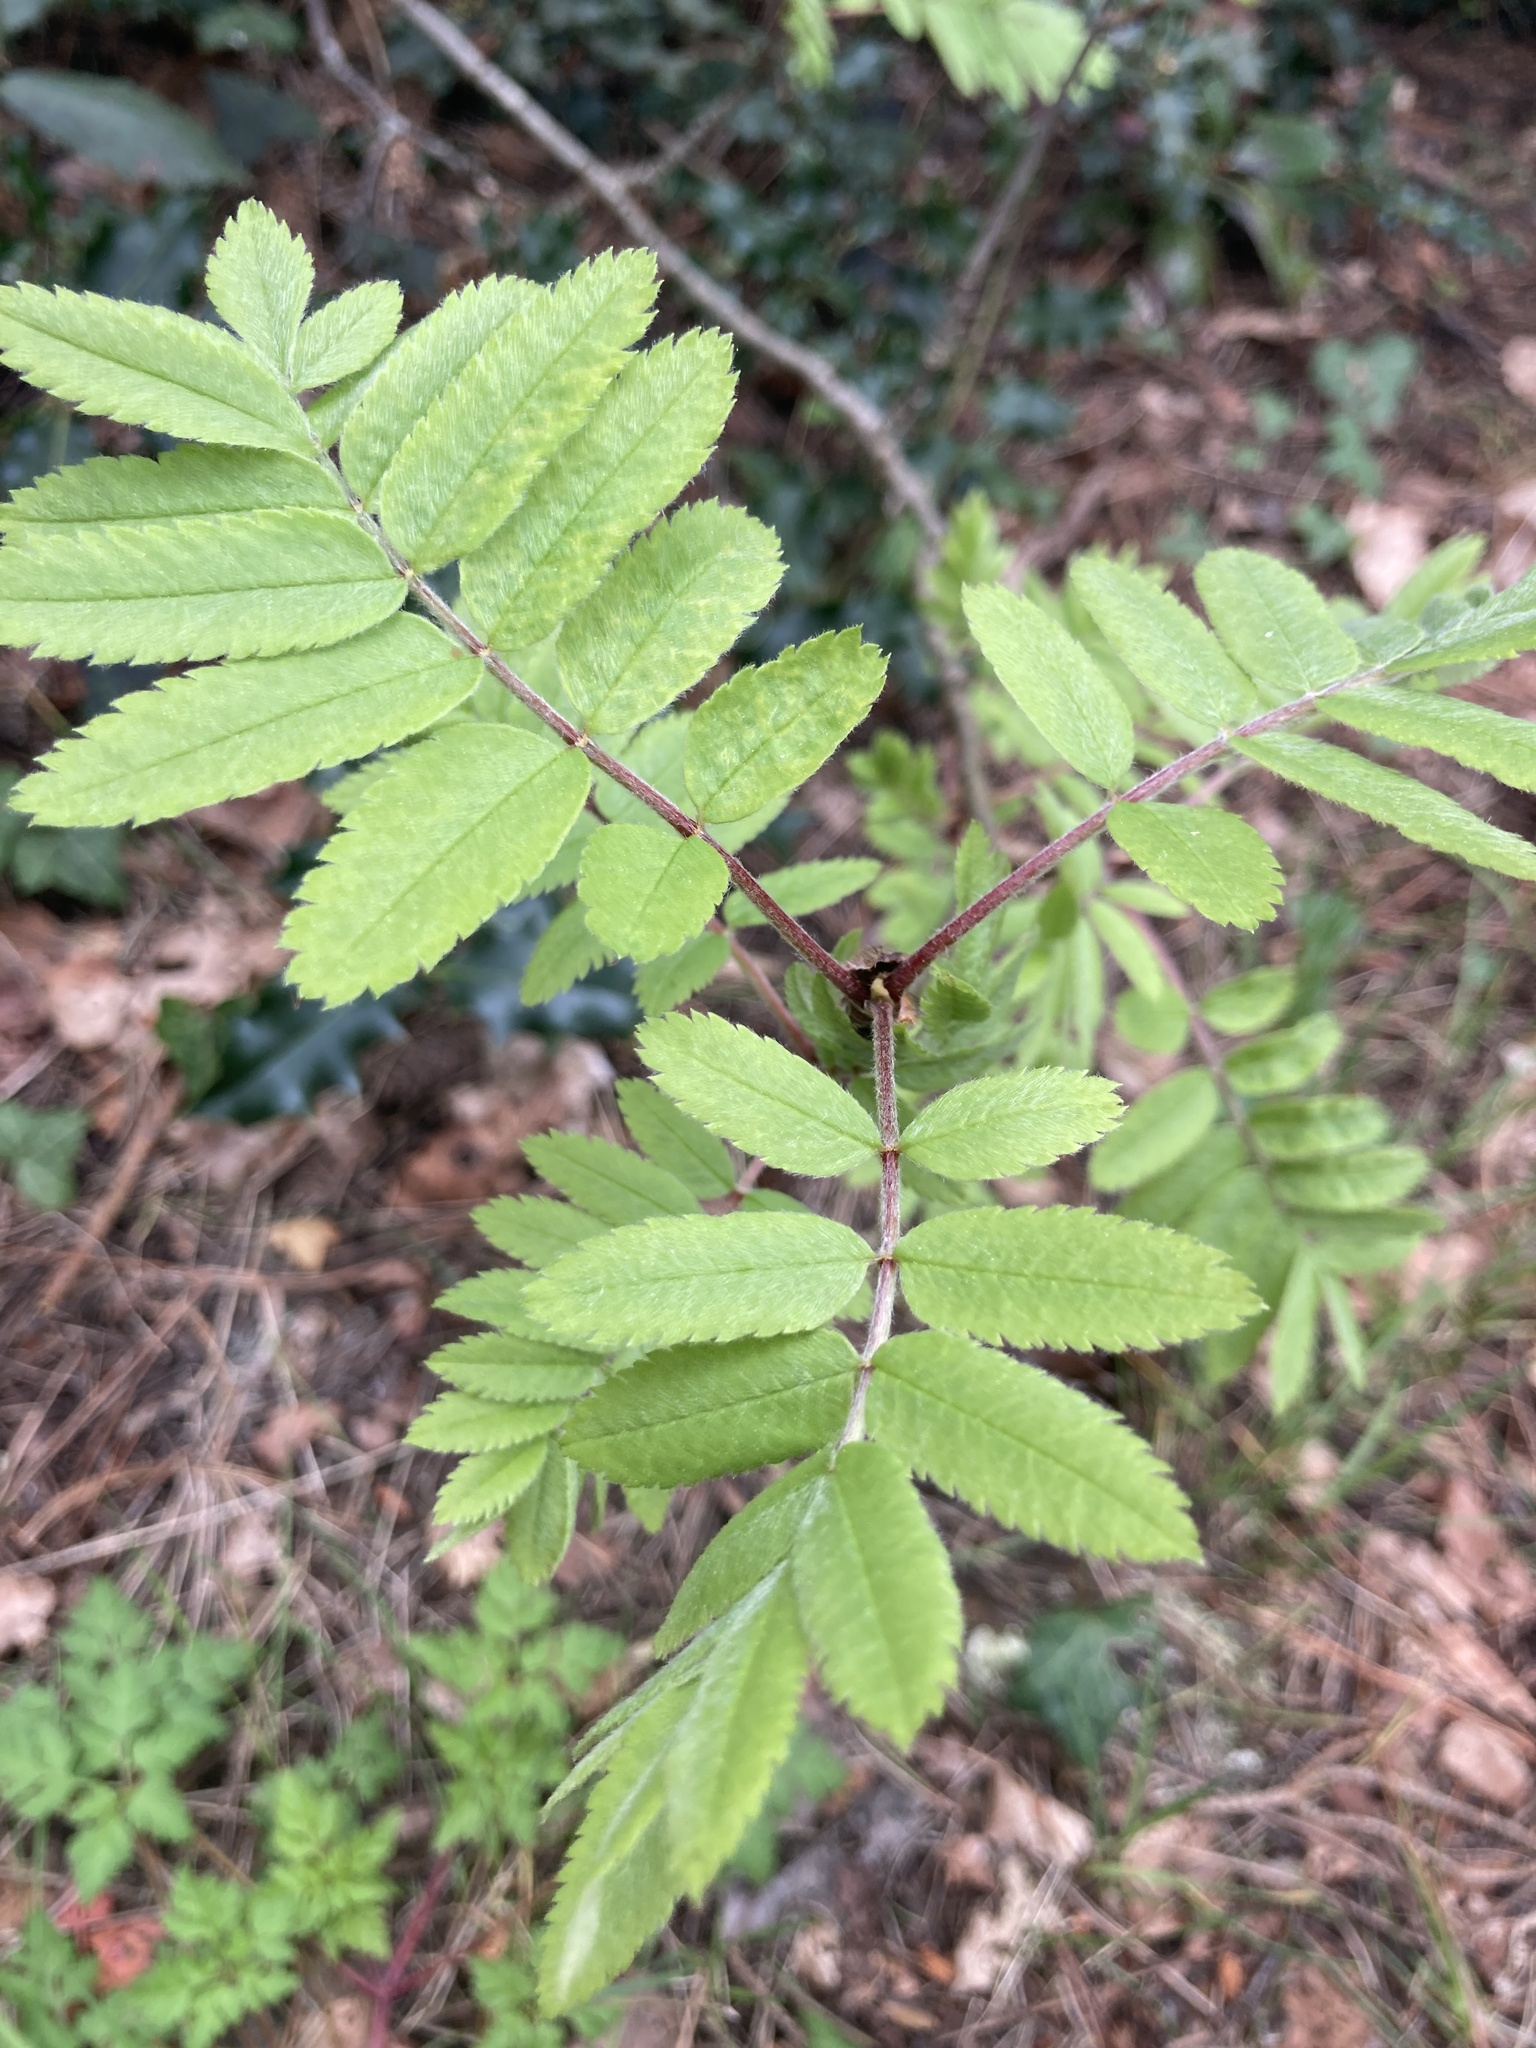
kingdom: Plantae
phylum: Tracheophyta
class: Magnoliopsida
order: Rosales
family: Rosaceae
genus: Sorbus
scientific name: Sorbus aucuparia
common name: Rowan
